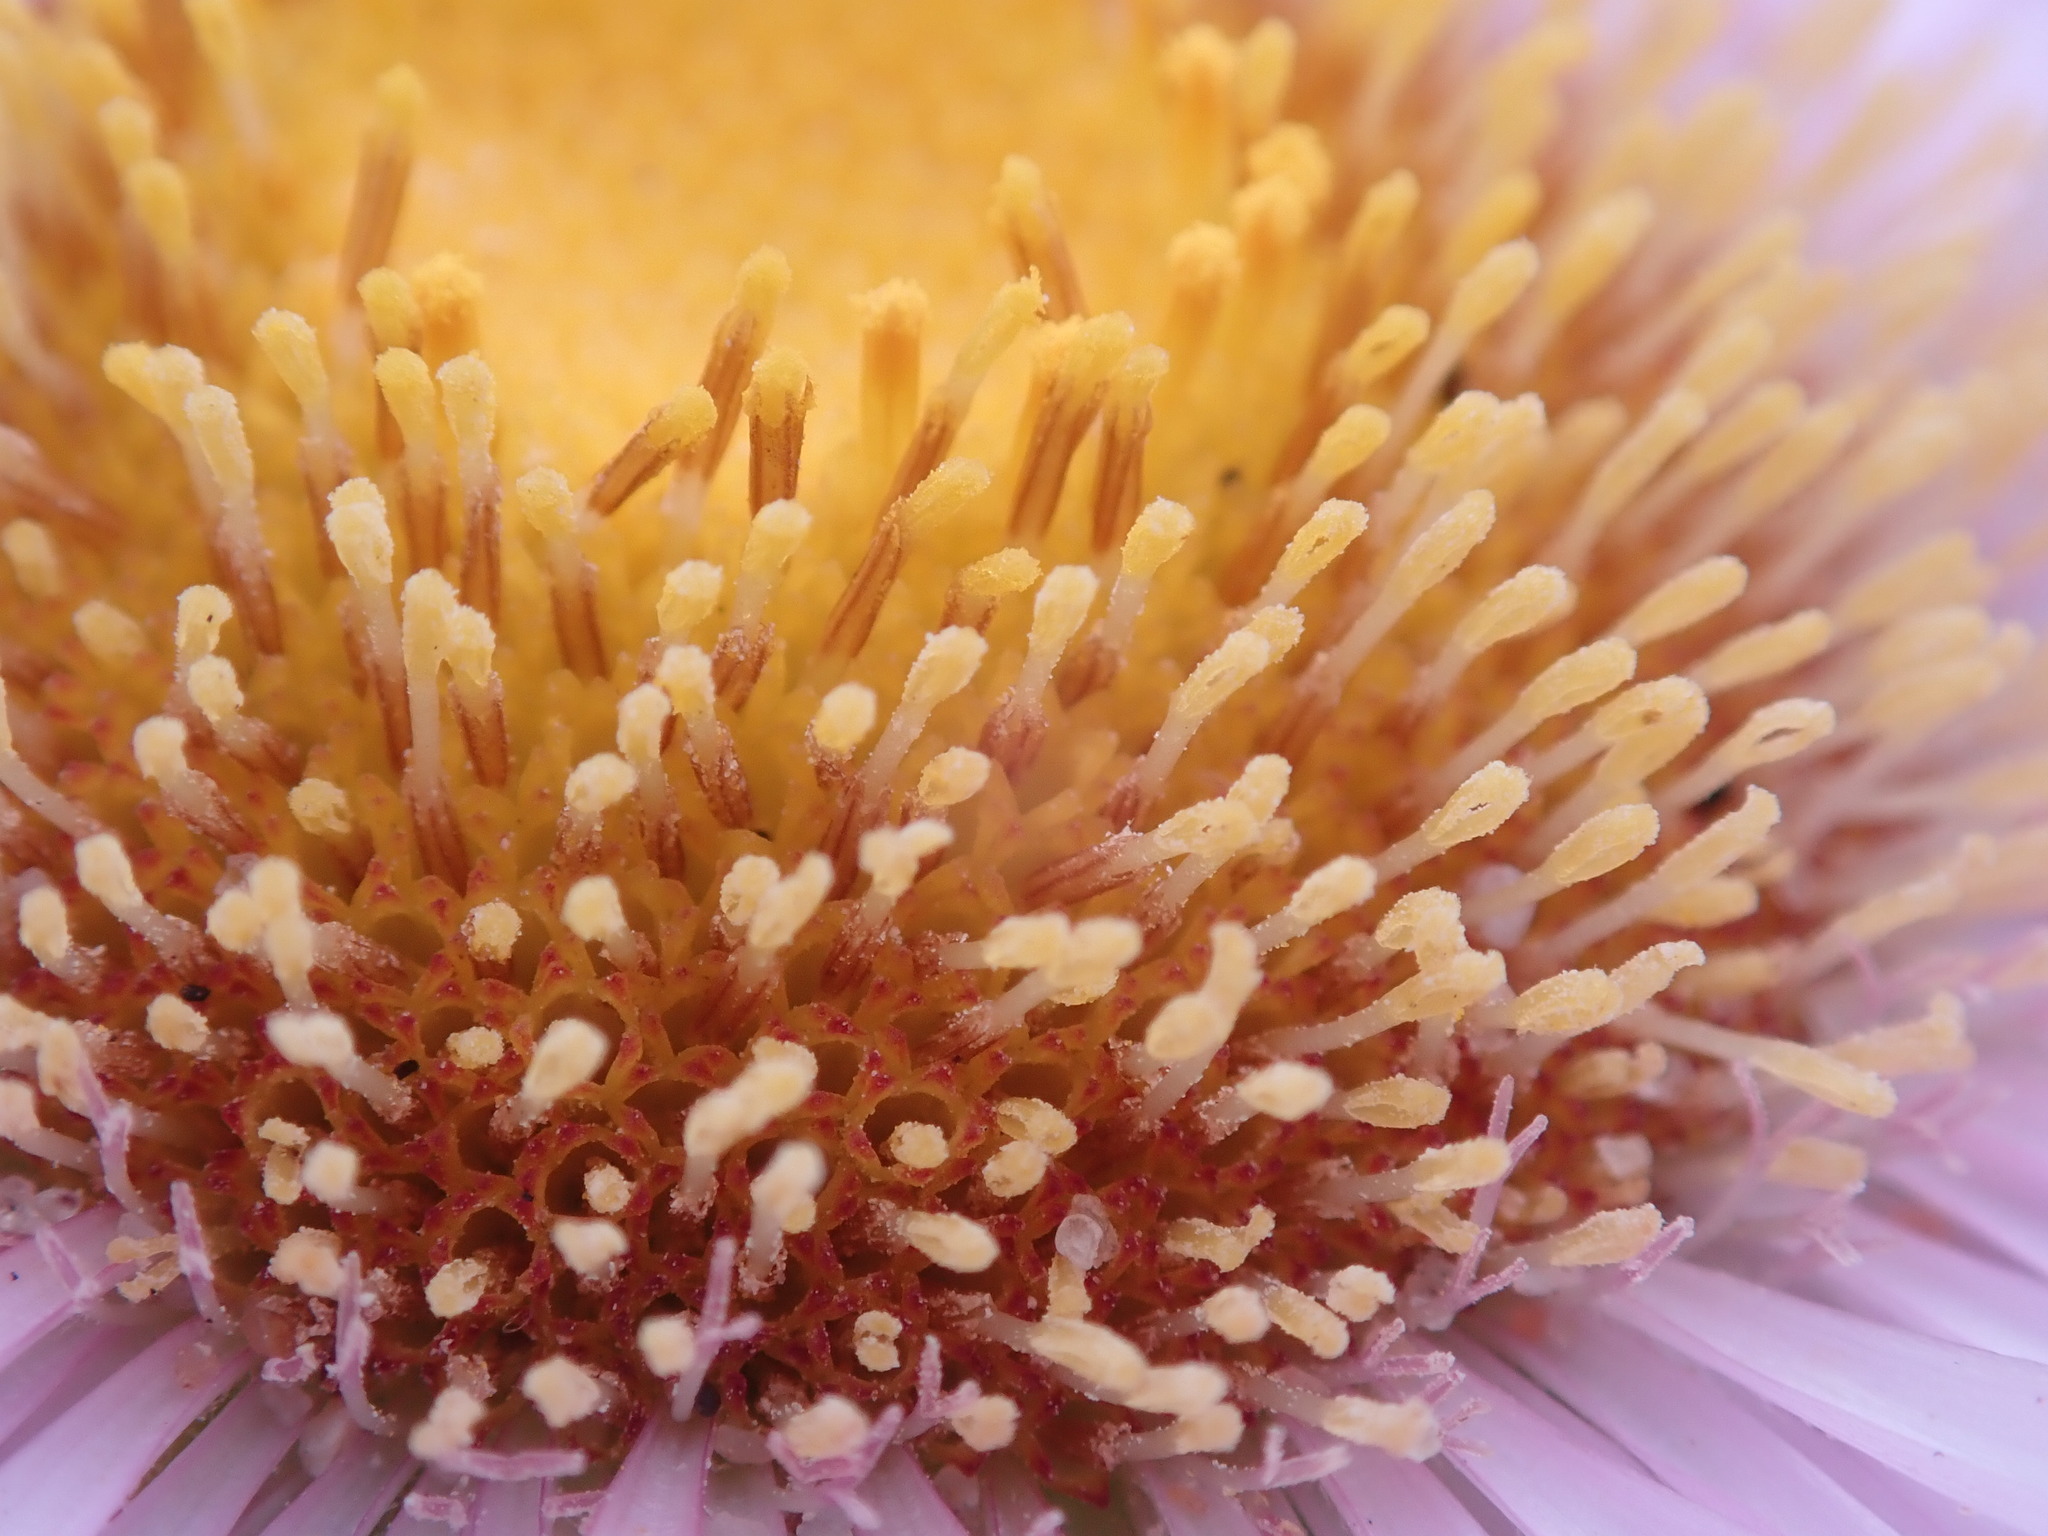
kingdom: Plantae
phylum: Tracheophyta
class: Magnoliopsida
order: Asterales
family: Asteraceae
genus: Erigeron
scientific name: Erigeron glaucus
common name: Seaside daisy
